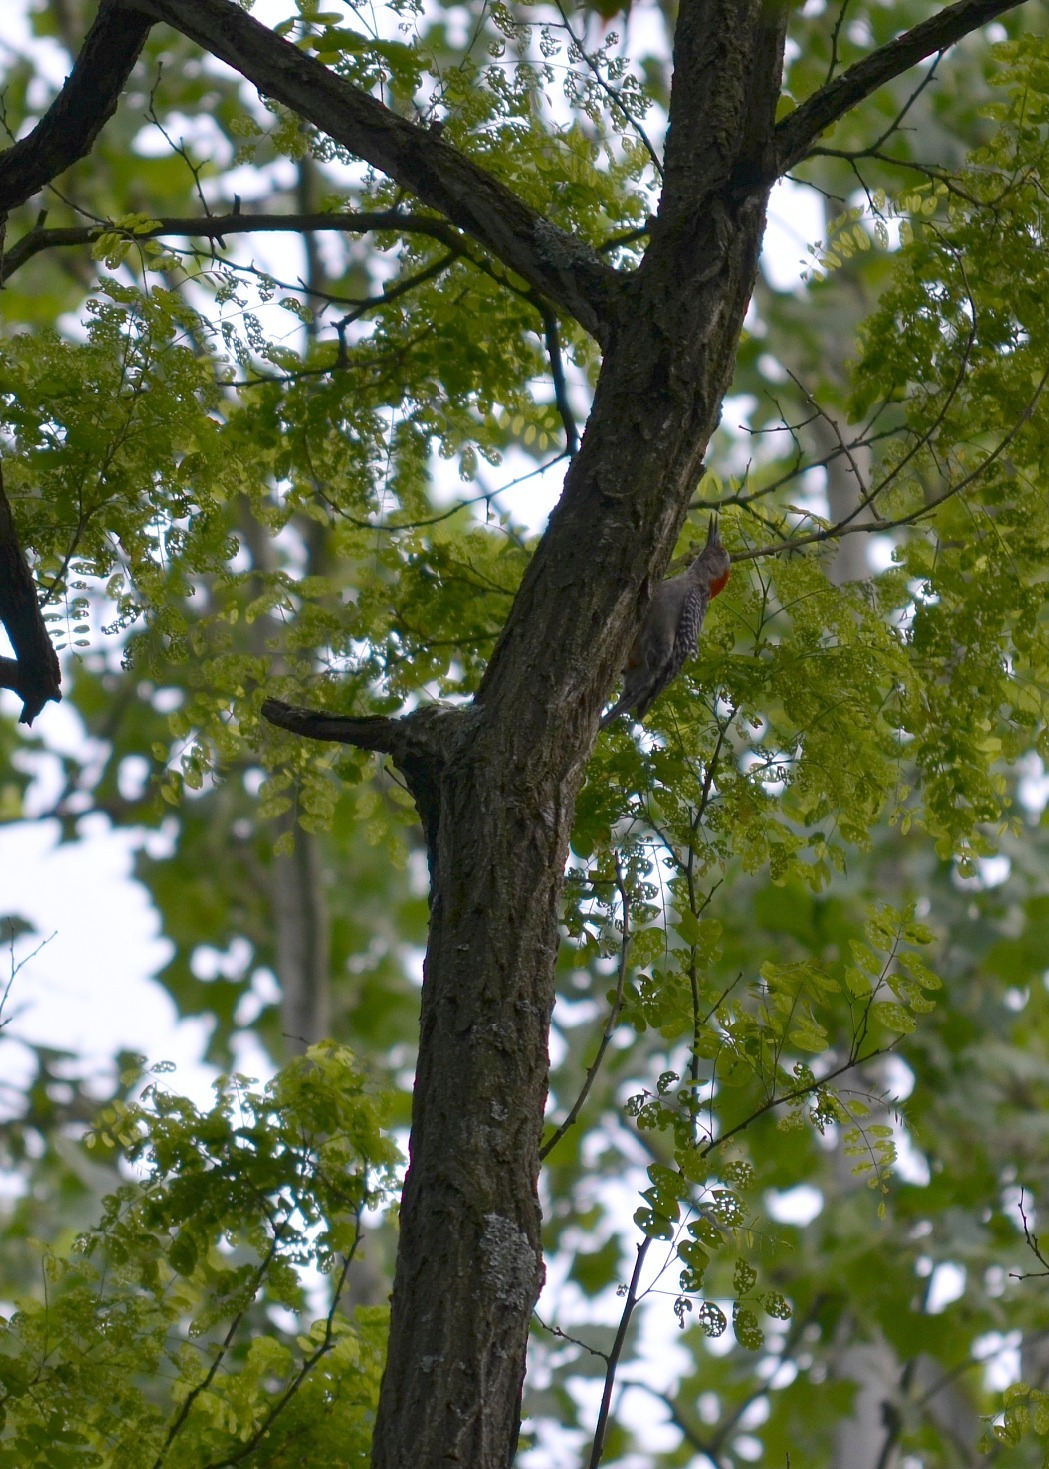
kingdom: Animalia
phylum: Chordata
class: Aves
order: Piciformes
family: Picidae
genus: Melanerpes
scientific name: Melanerpes carolinus
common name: Red-bellied woodpecker
